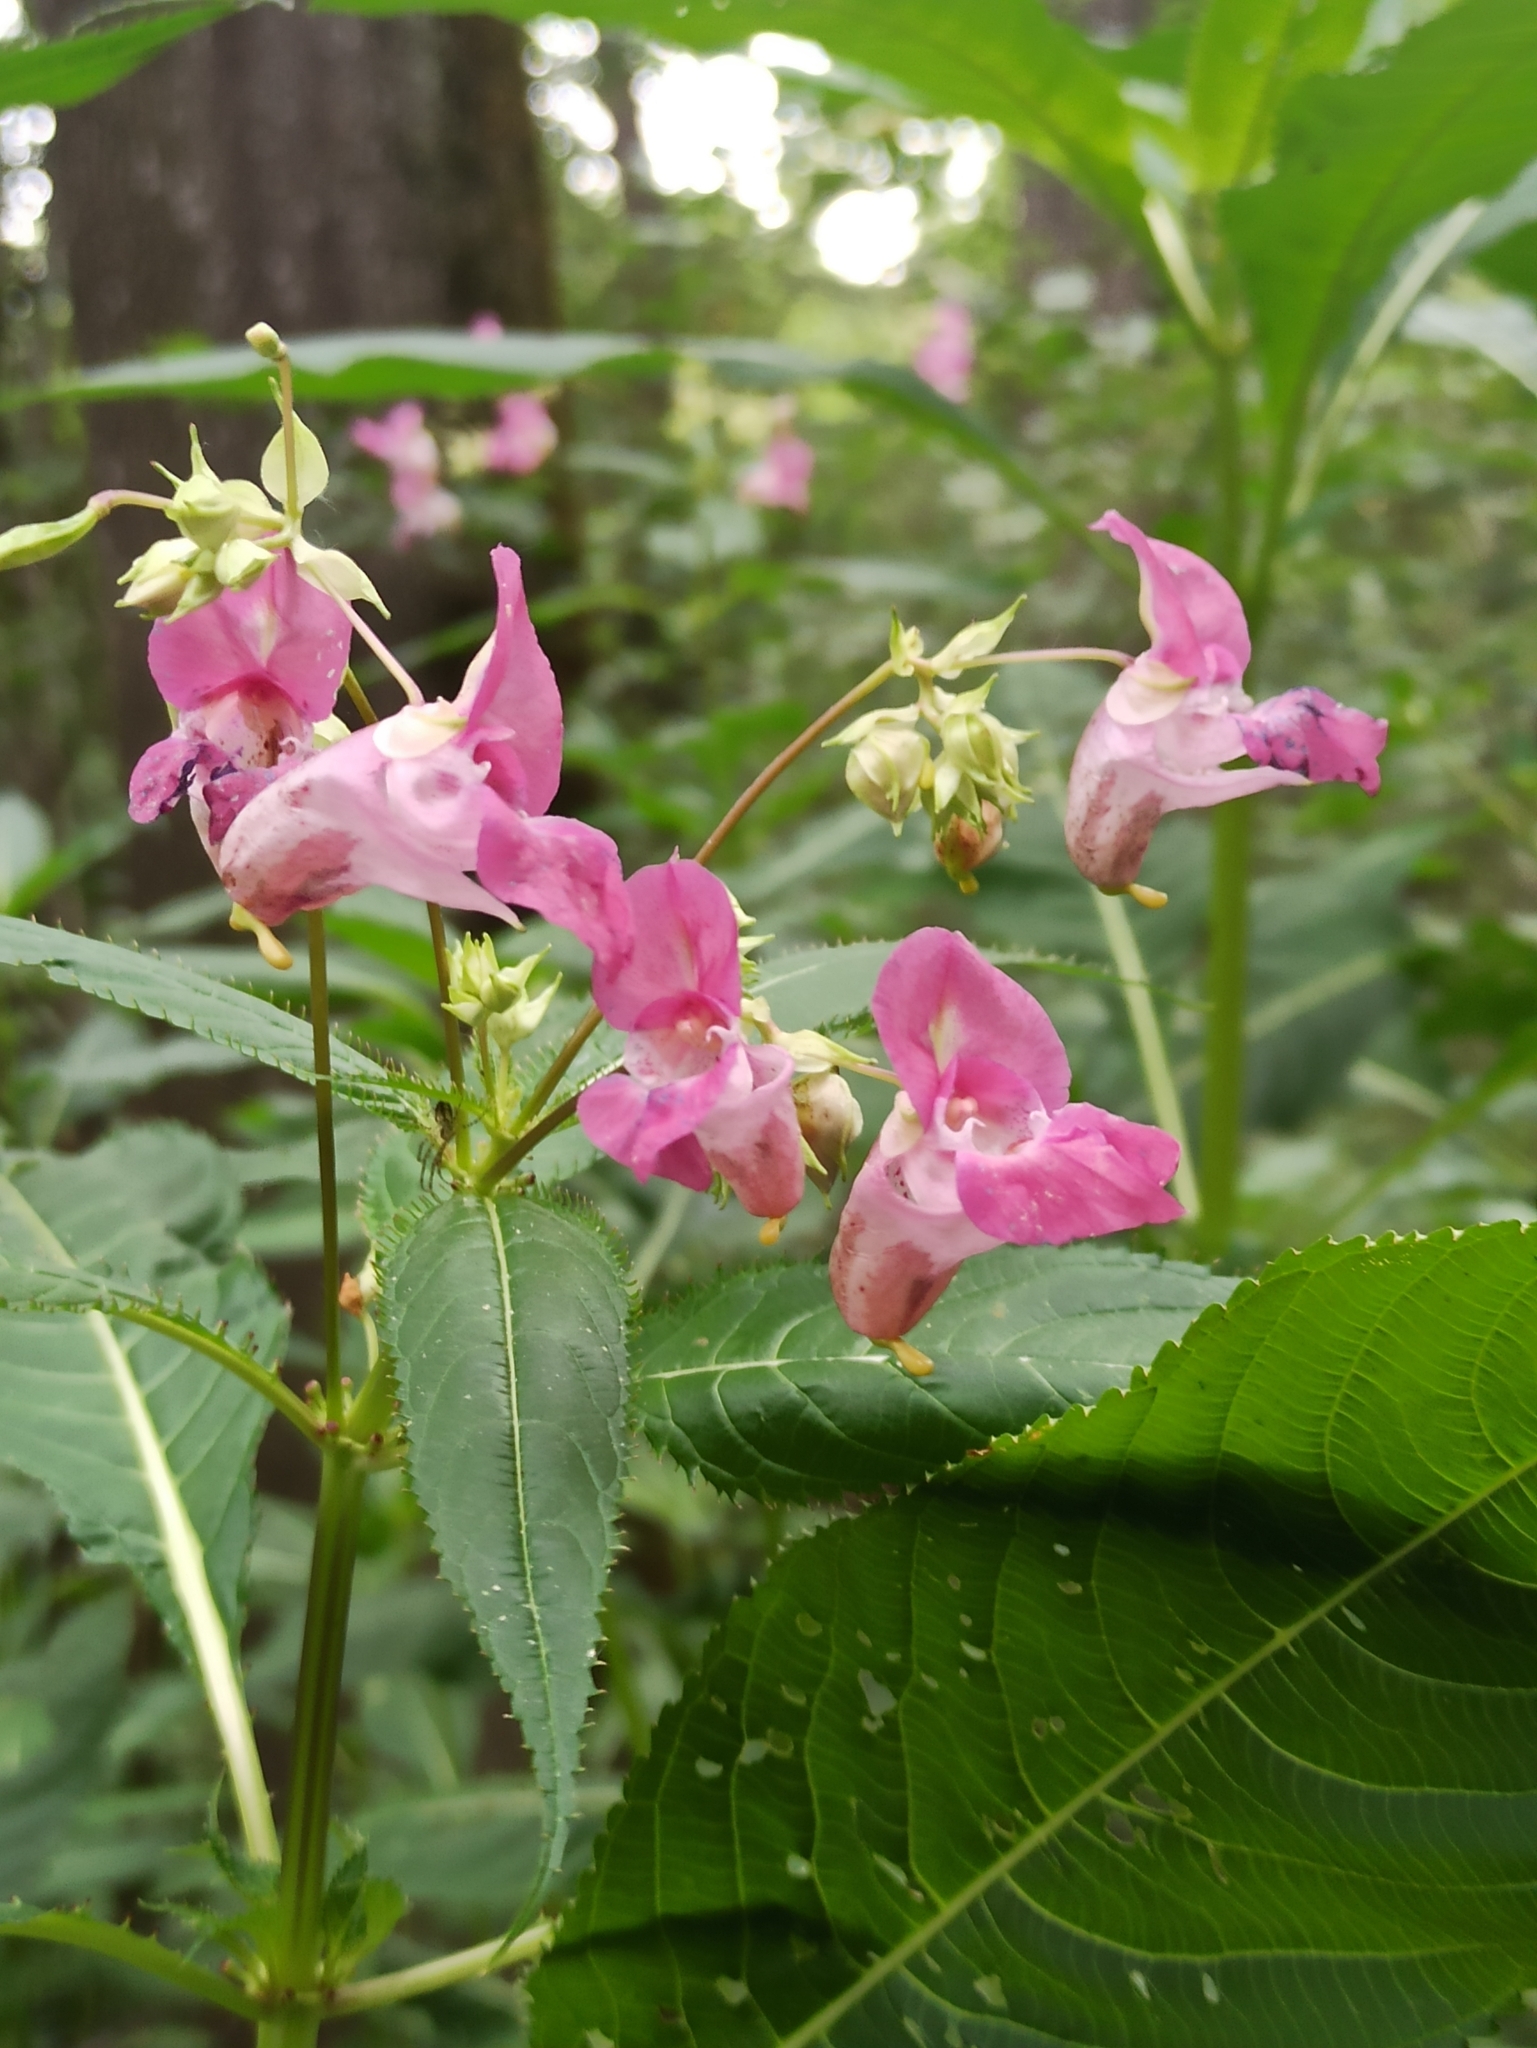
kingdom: Plantae
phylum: Tracheophyta
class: Magnoliopsida
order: Ericales
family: Balsaminaceae
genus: Impatiens
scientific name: Impatiens glandulifera
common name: Himalayan balsam
